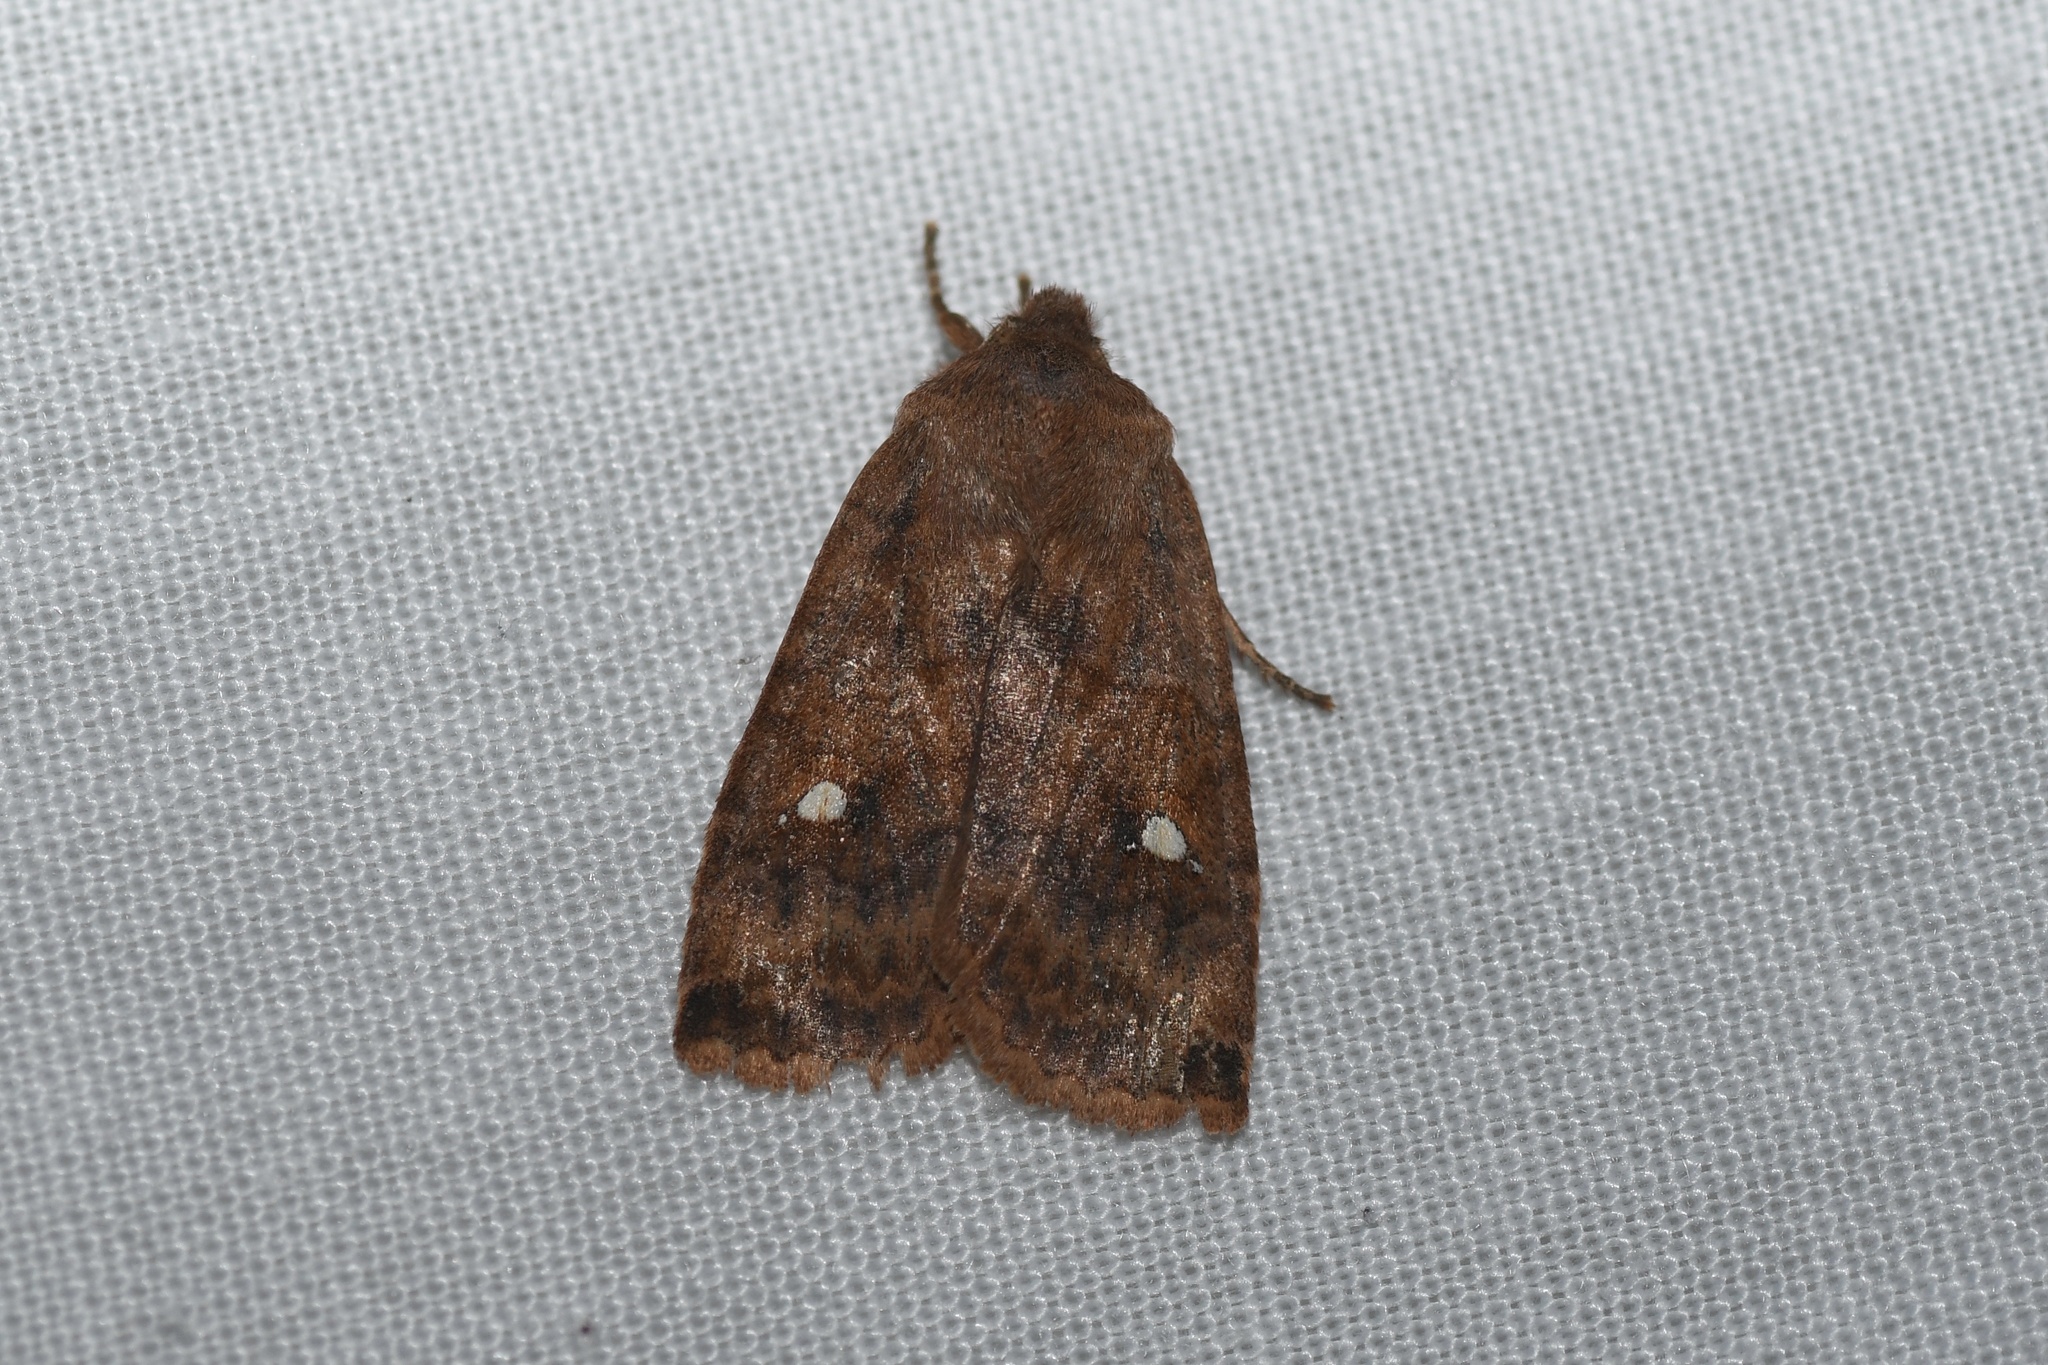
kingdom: Animalia
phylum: Arthropoda
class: Insecta
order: Lepidoptera
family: Noctuidae
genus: Eupsilia
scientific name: Eupsilia tristigmata
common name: Three-spotted sallow
